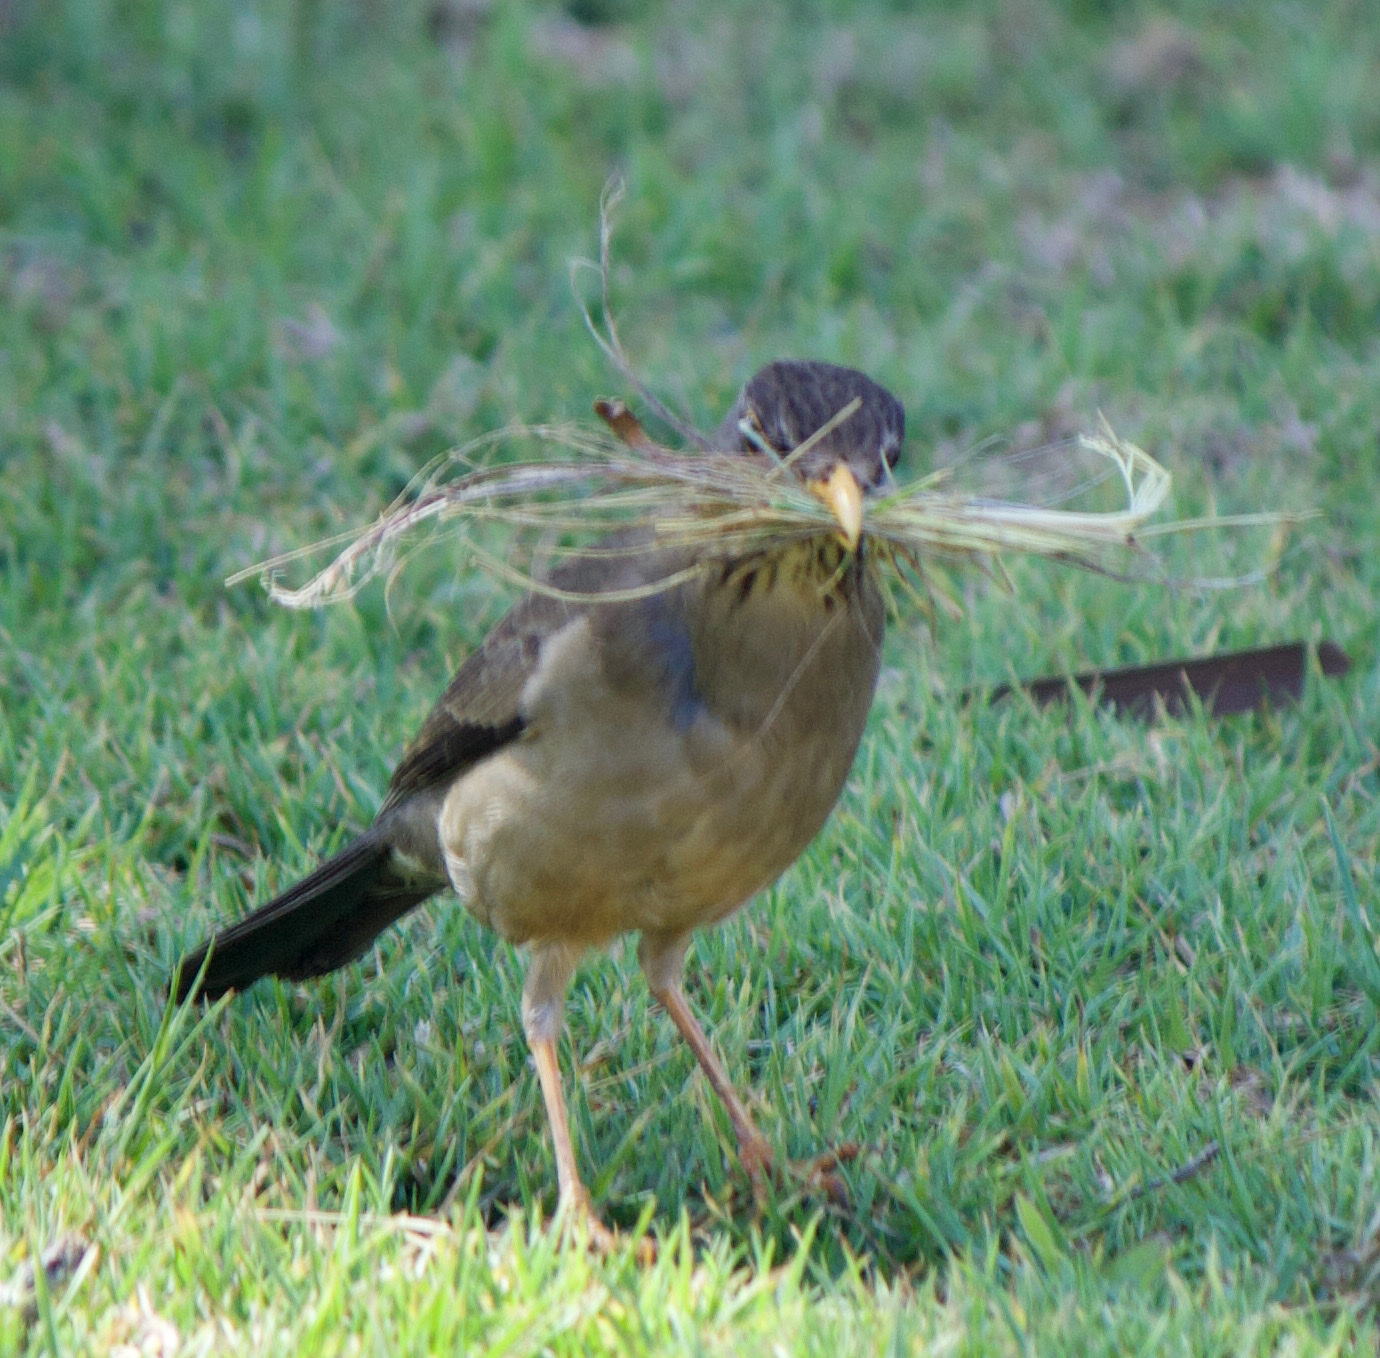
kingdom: Animalia
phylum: Chordata
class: Aves
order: Passeriformes
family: Turdidae
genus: Turdus
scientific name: Turdus falcklandii
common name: Austral thrush
